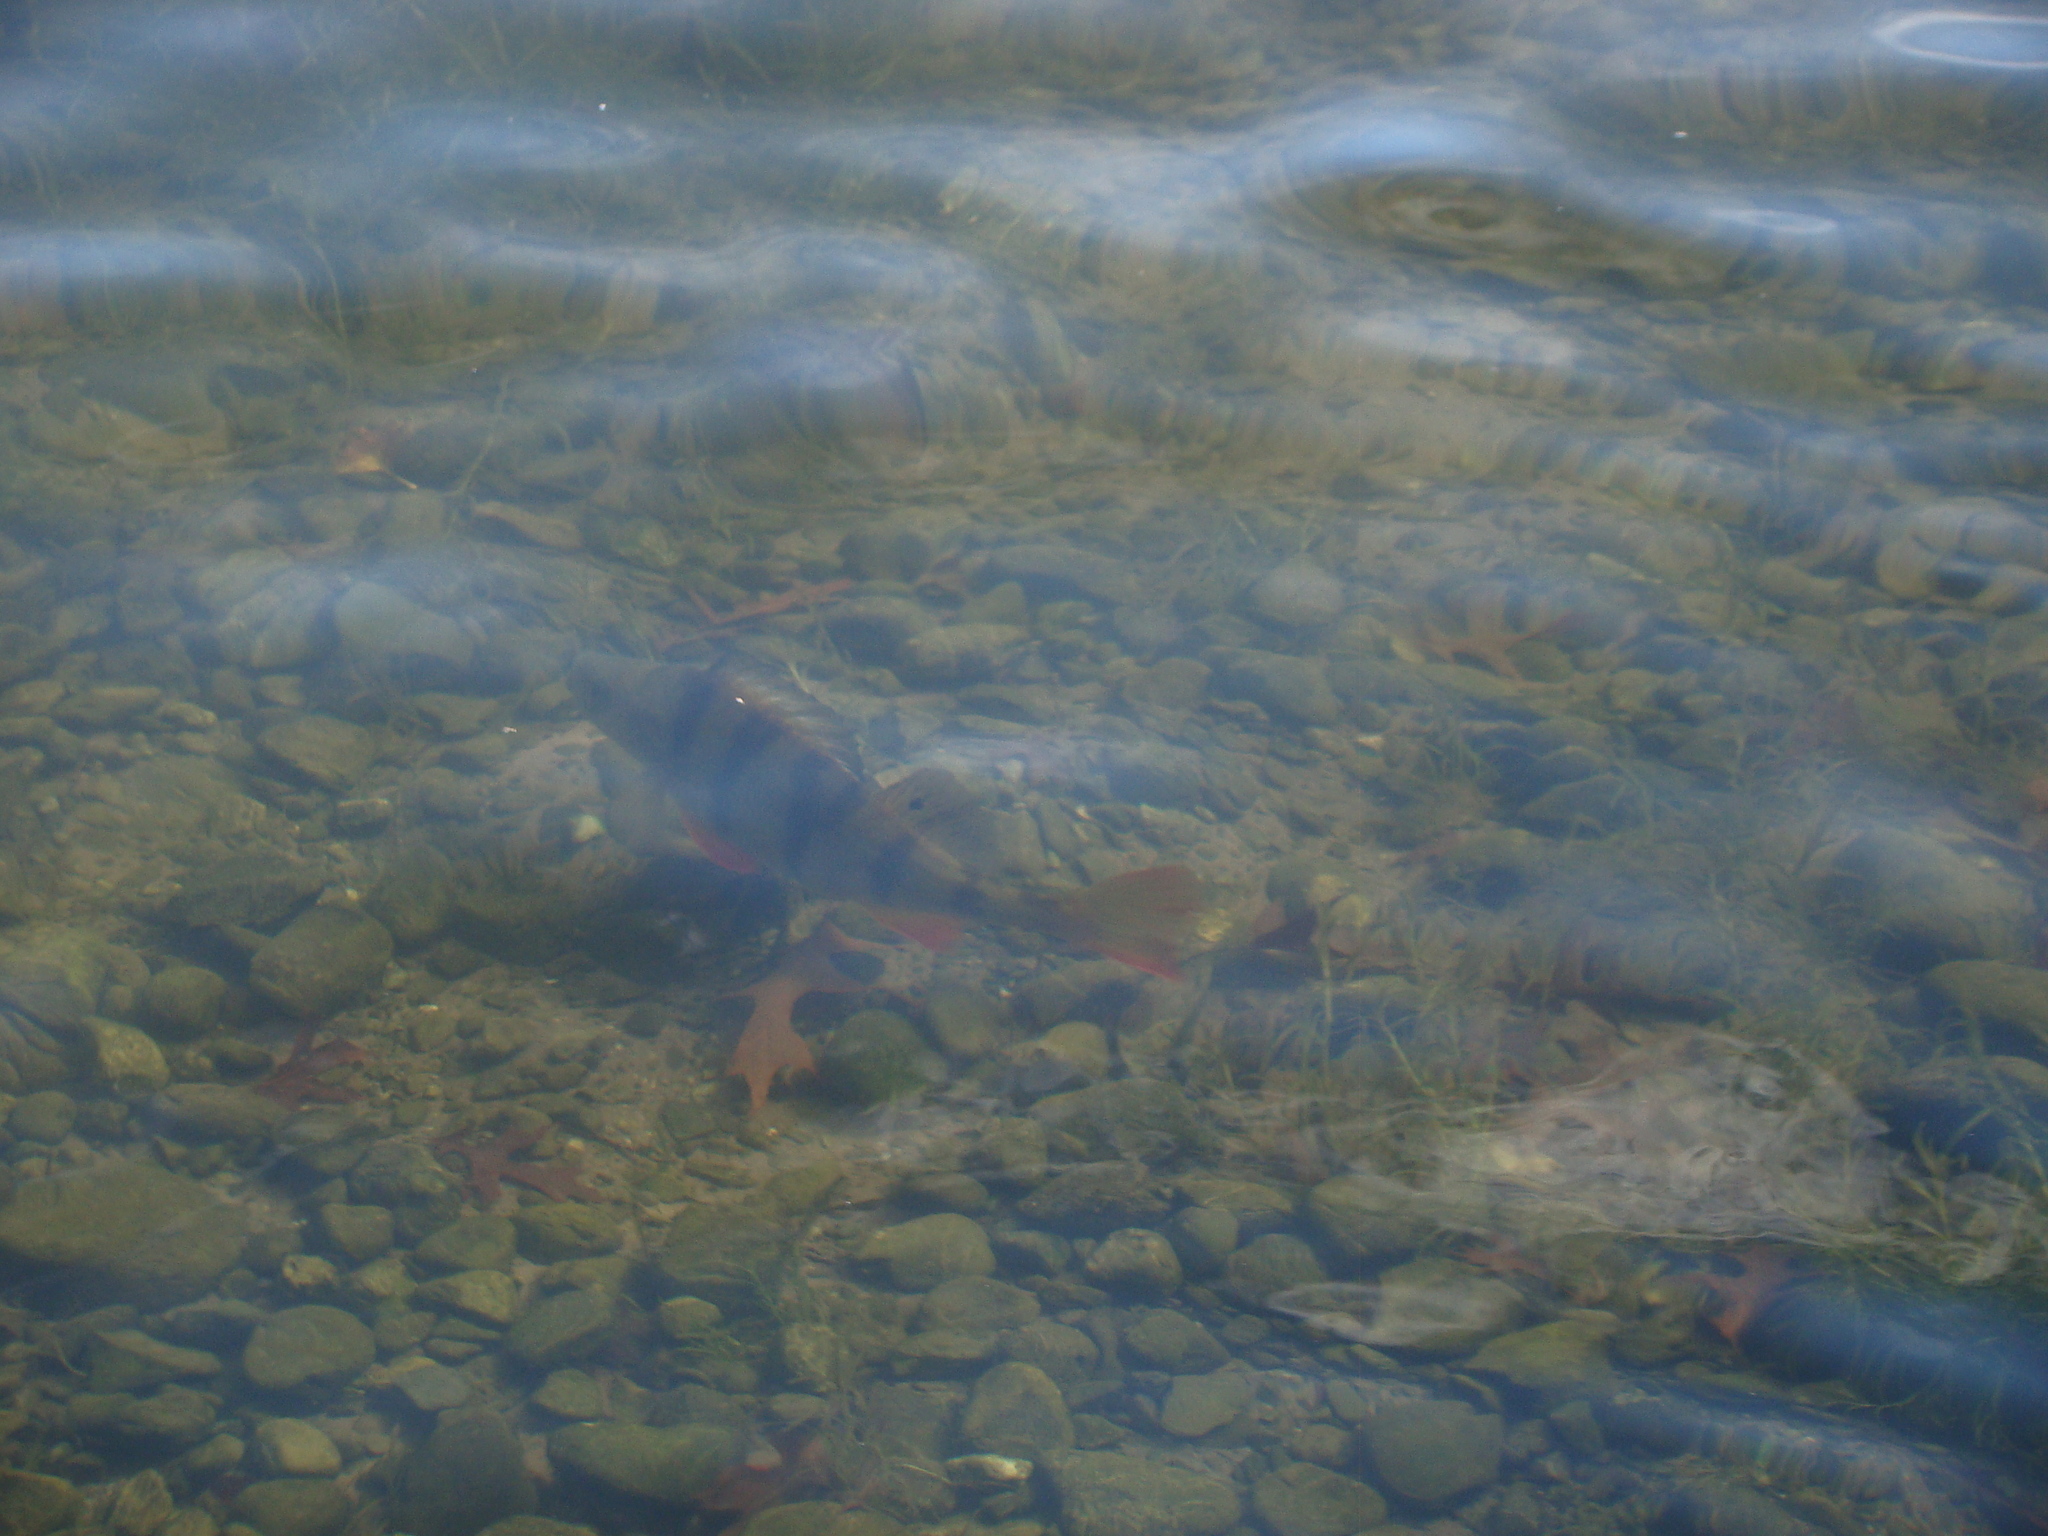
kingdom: Animalia
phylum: Chordata
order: Perciformes
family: Percidae
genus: Perca
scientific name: Perca fluviatilis
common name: Perch
